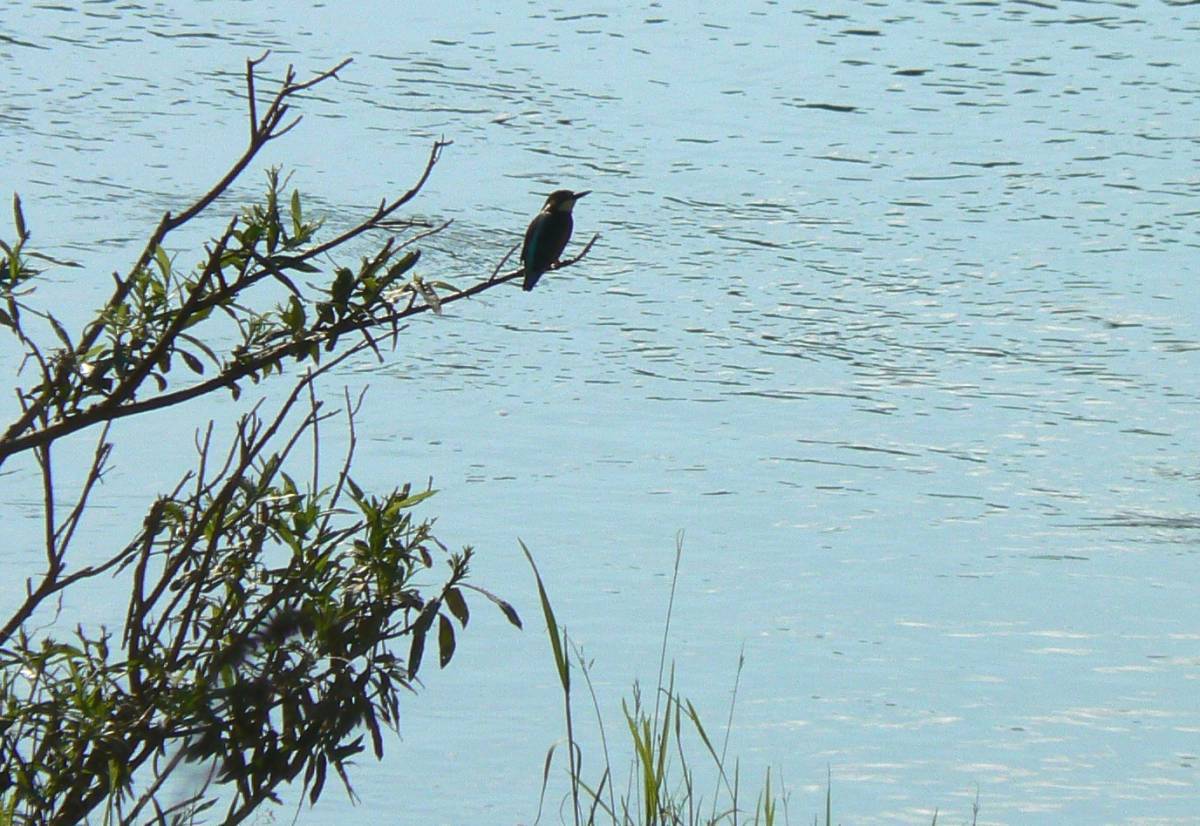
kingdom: Animalia
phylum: Chordata
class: Aves
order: Coraciiformes
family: Alcedinidae
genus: Alcedo
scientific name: Alcedo atthis
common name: Common kingfisher
